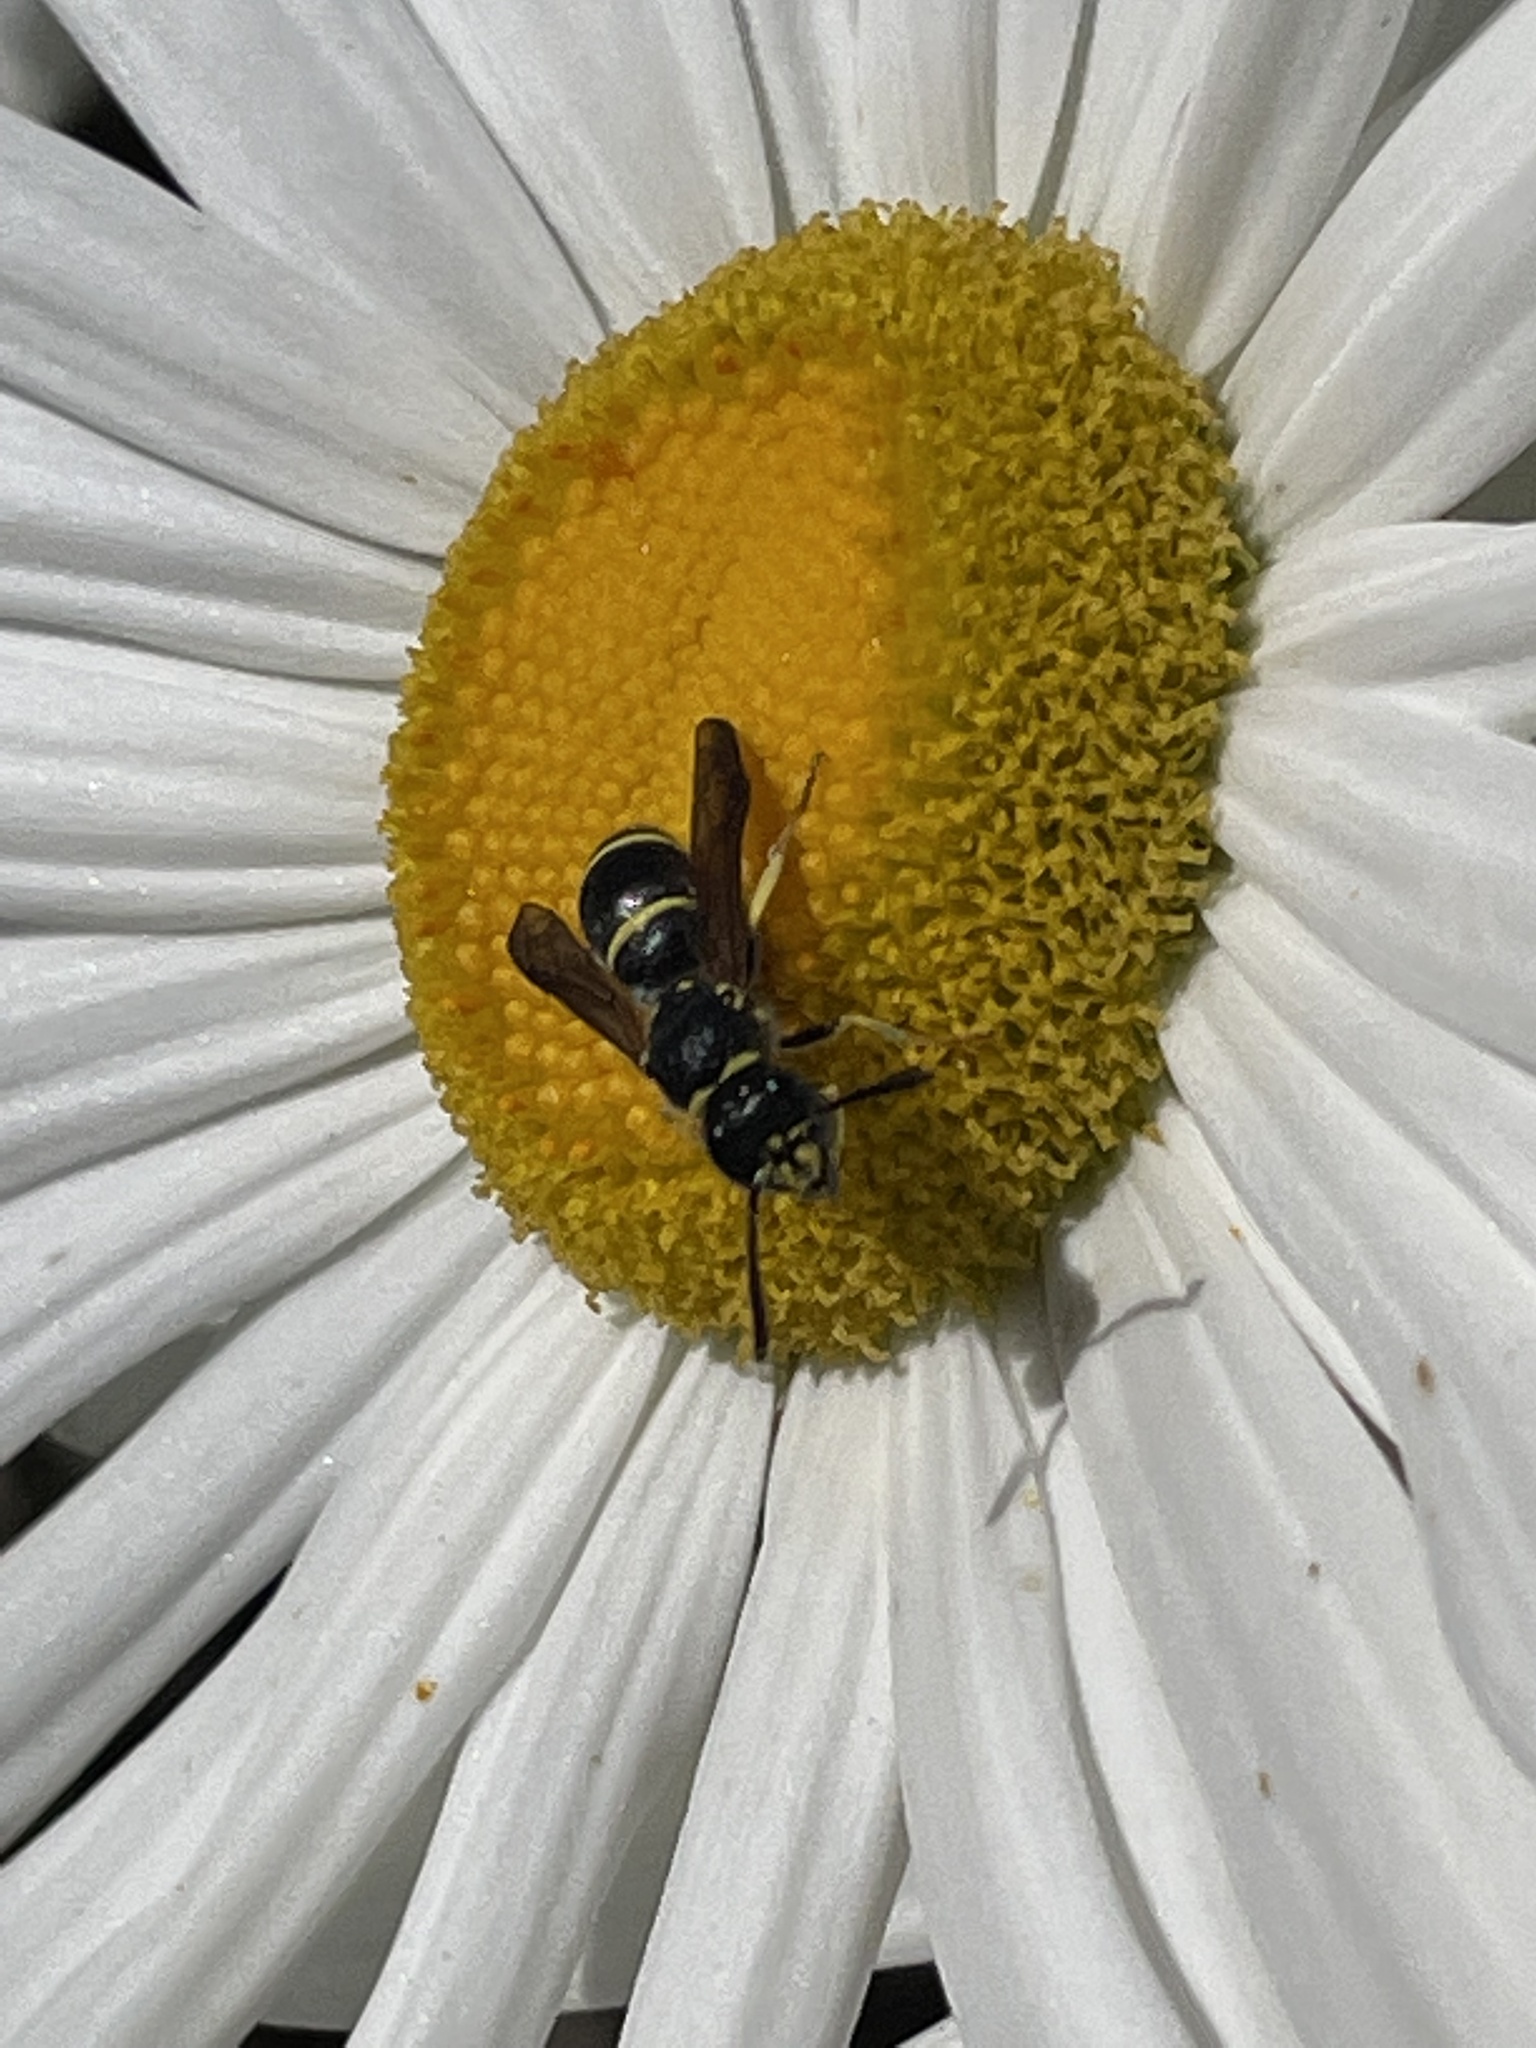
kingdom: Animalia
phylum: Arthropoda
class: Insecta
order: Hymenoptera
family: Vespidae
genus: Ancistrocerus
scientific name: Ancistrocerus adiabatus
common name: Bramble mason wasp
